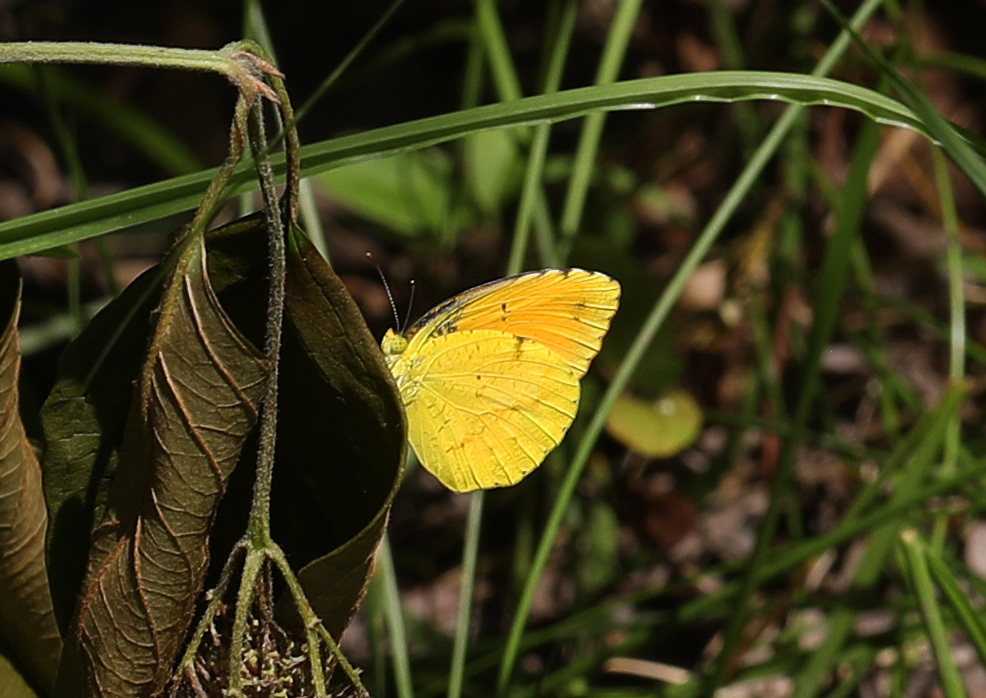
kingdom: Animalia
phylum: Arthropoda
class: Insecta
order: Lepidoptera
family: Pieridae
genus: Abaeis
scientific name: Abaeis nicippe
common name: Sleepy orange
